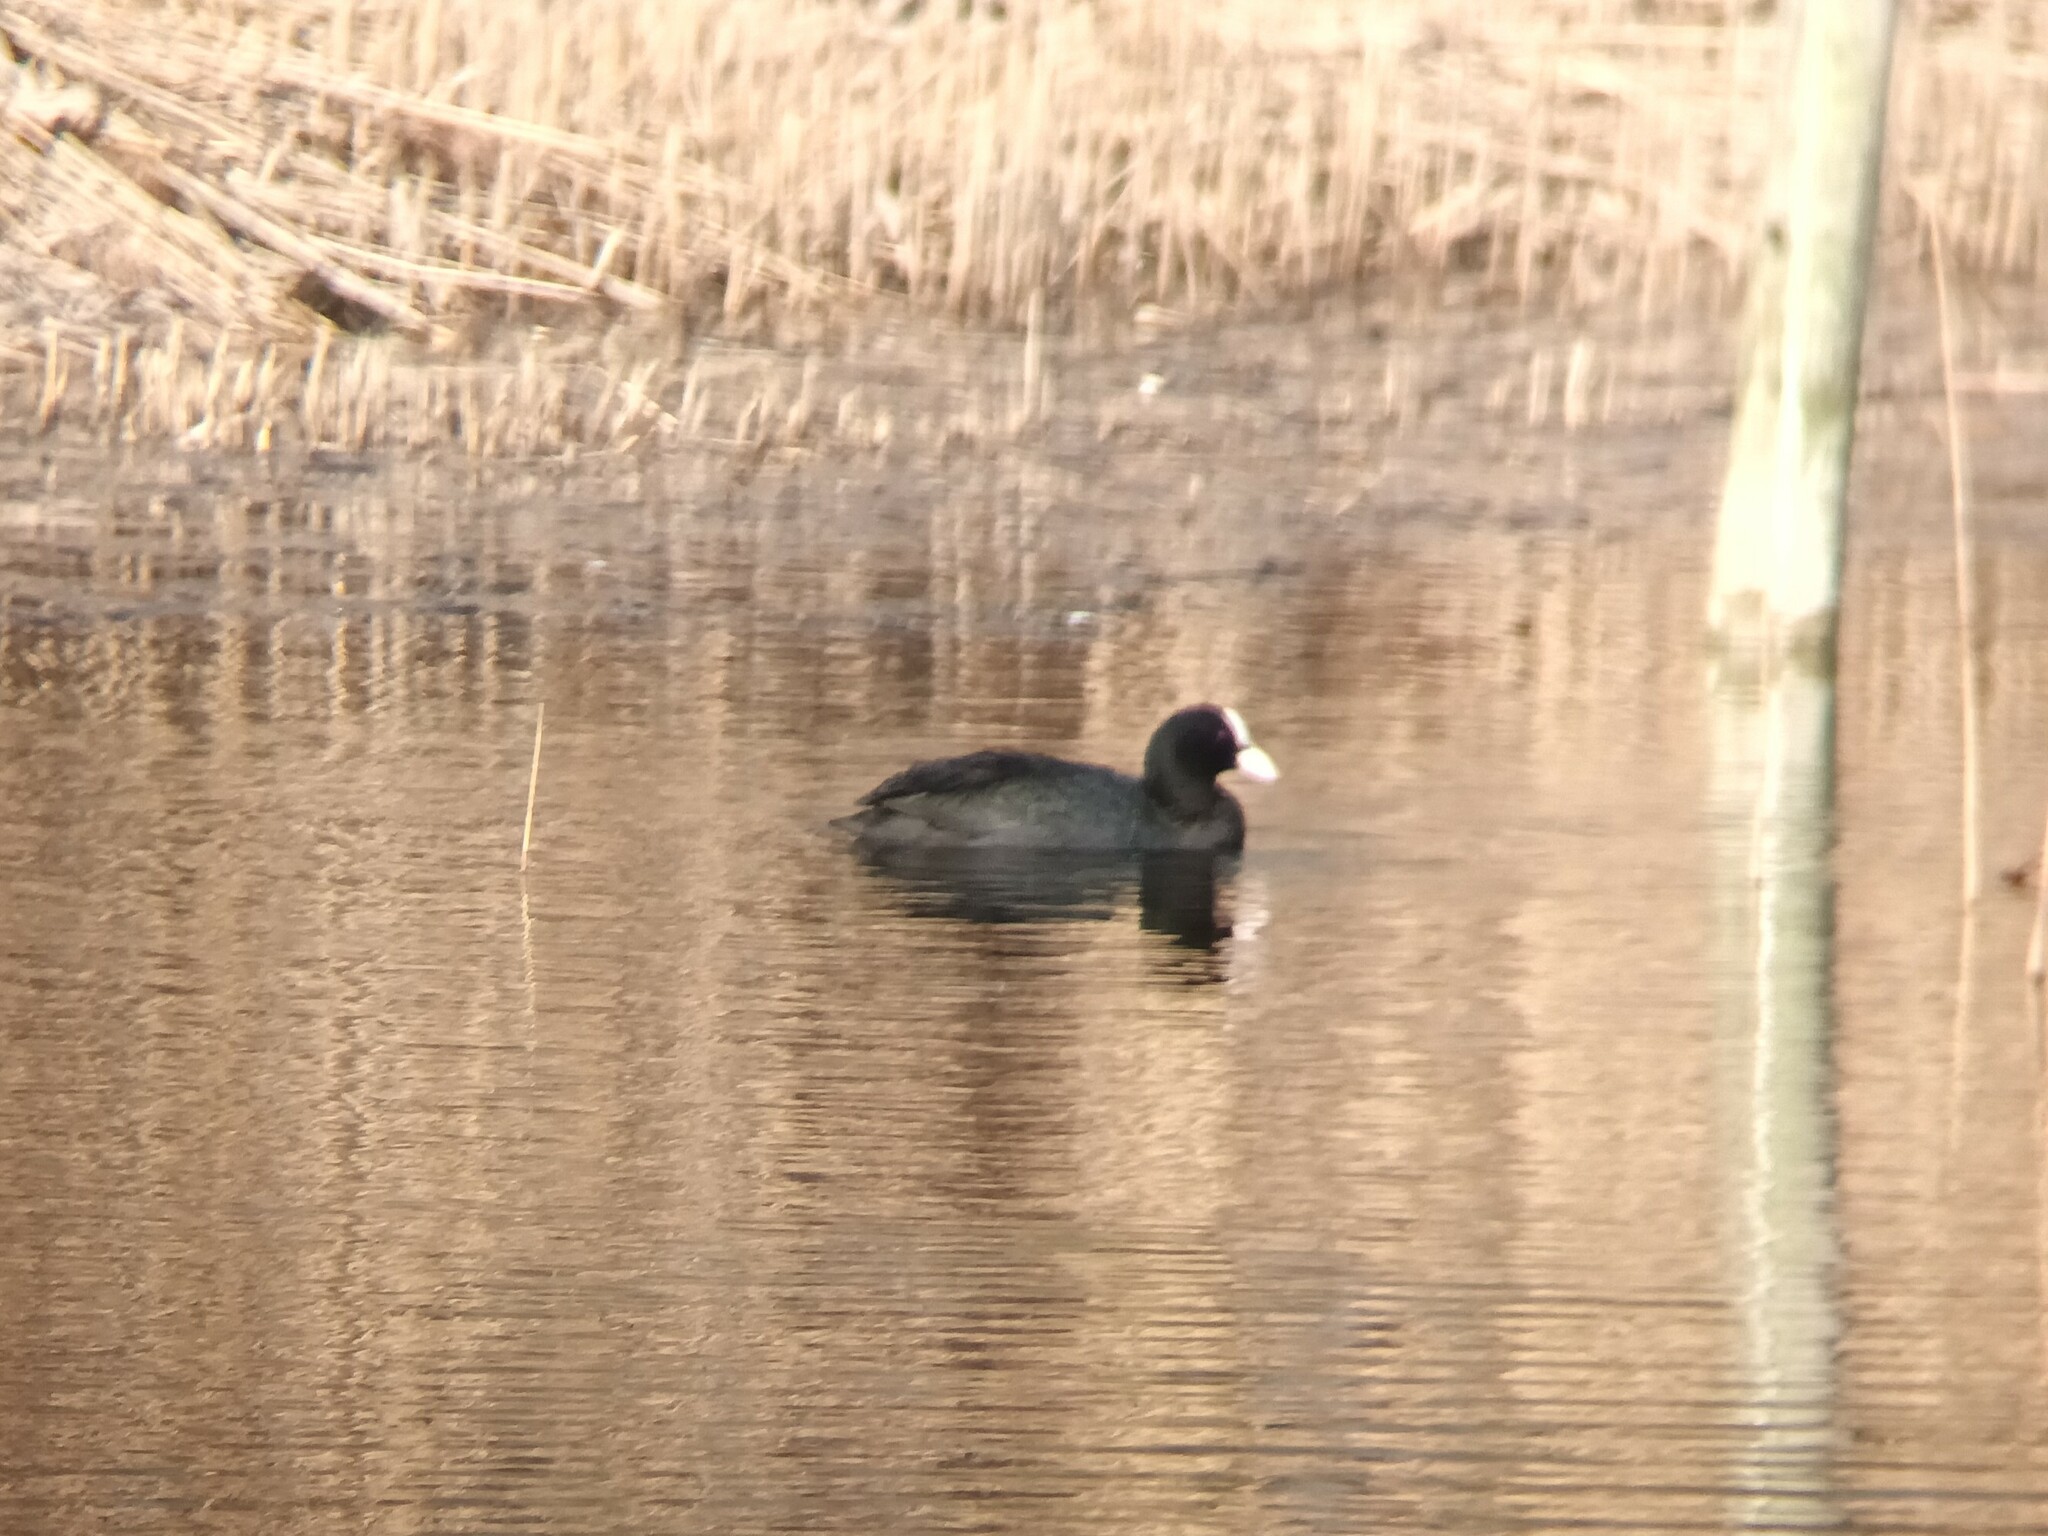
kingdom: Animalia
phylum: Chordata
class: Aves
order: Gruiformes
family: Rallidae
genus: Fulica
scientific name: Fulica atra
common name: Eurasian coot
